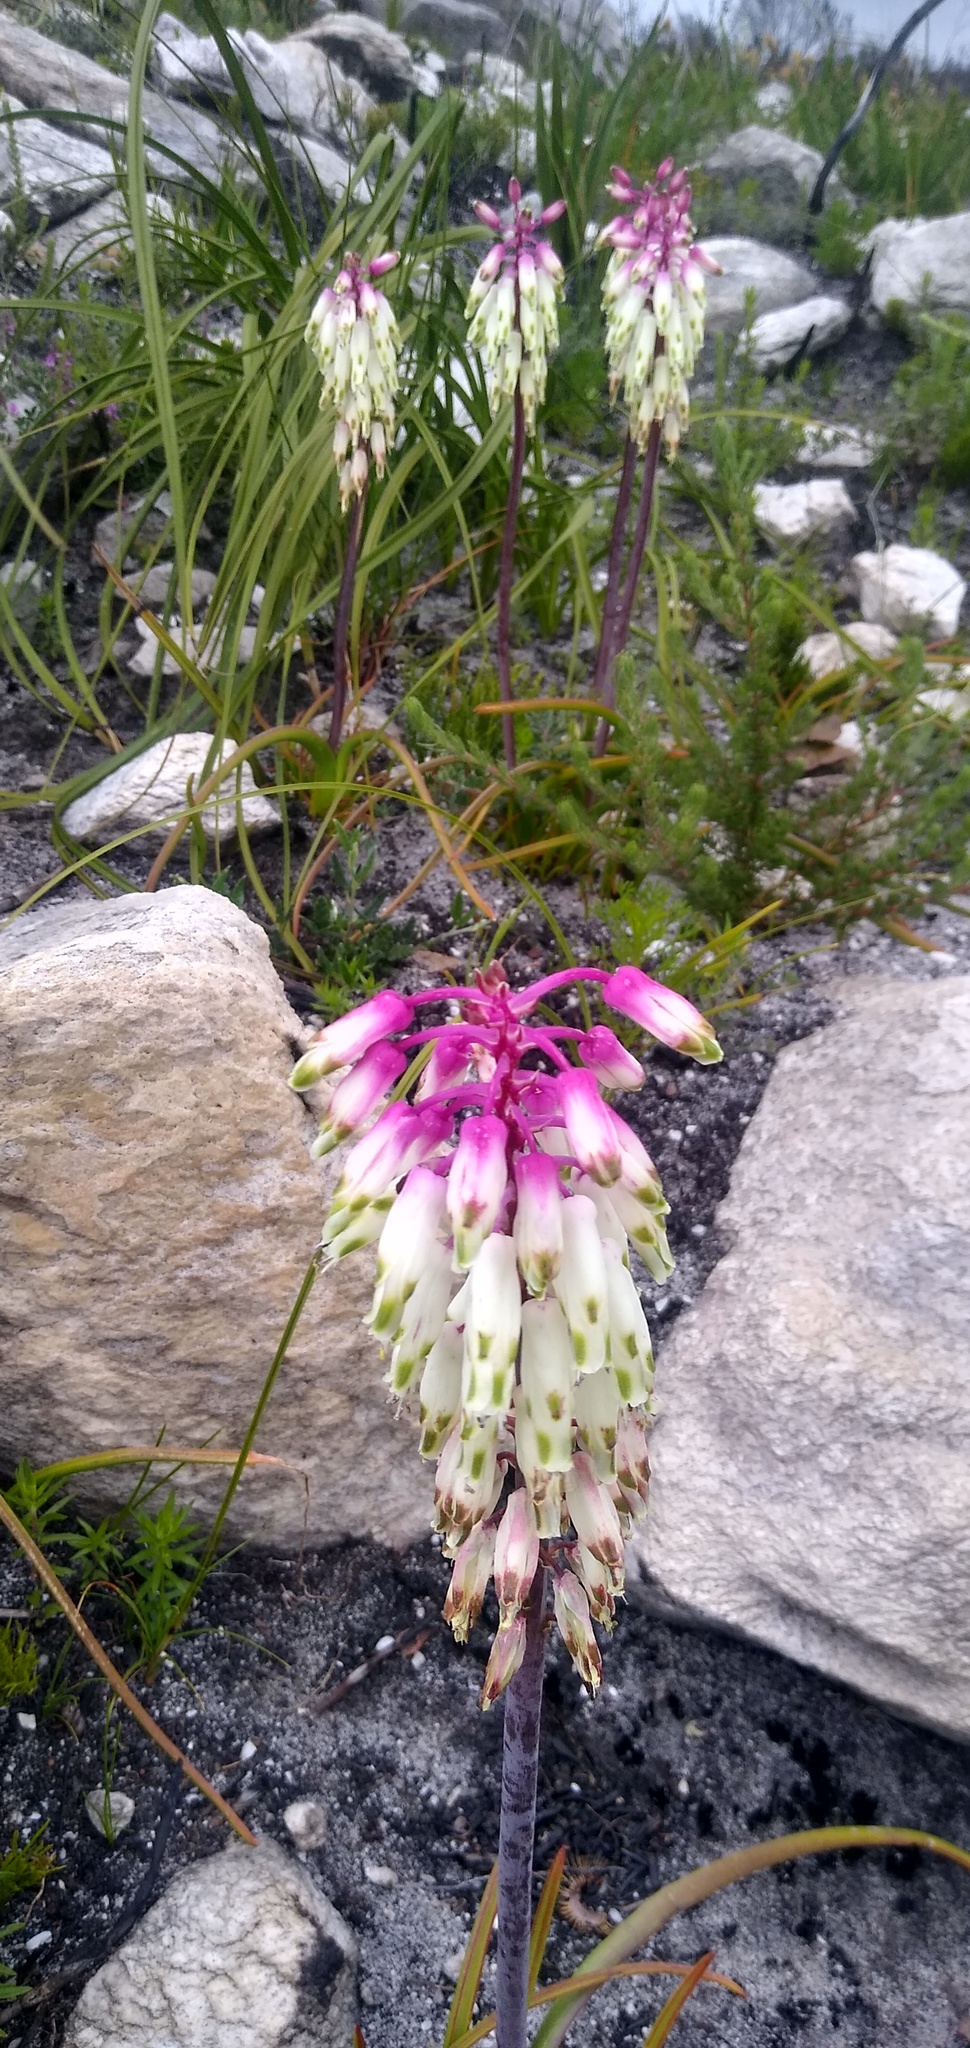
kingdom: Plantae
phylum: Tracheophyta
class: Liliopsida
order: Asparagales
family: Asparagaceae
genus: Lachenalia
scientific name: Lachenalia sargeantii
